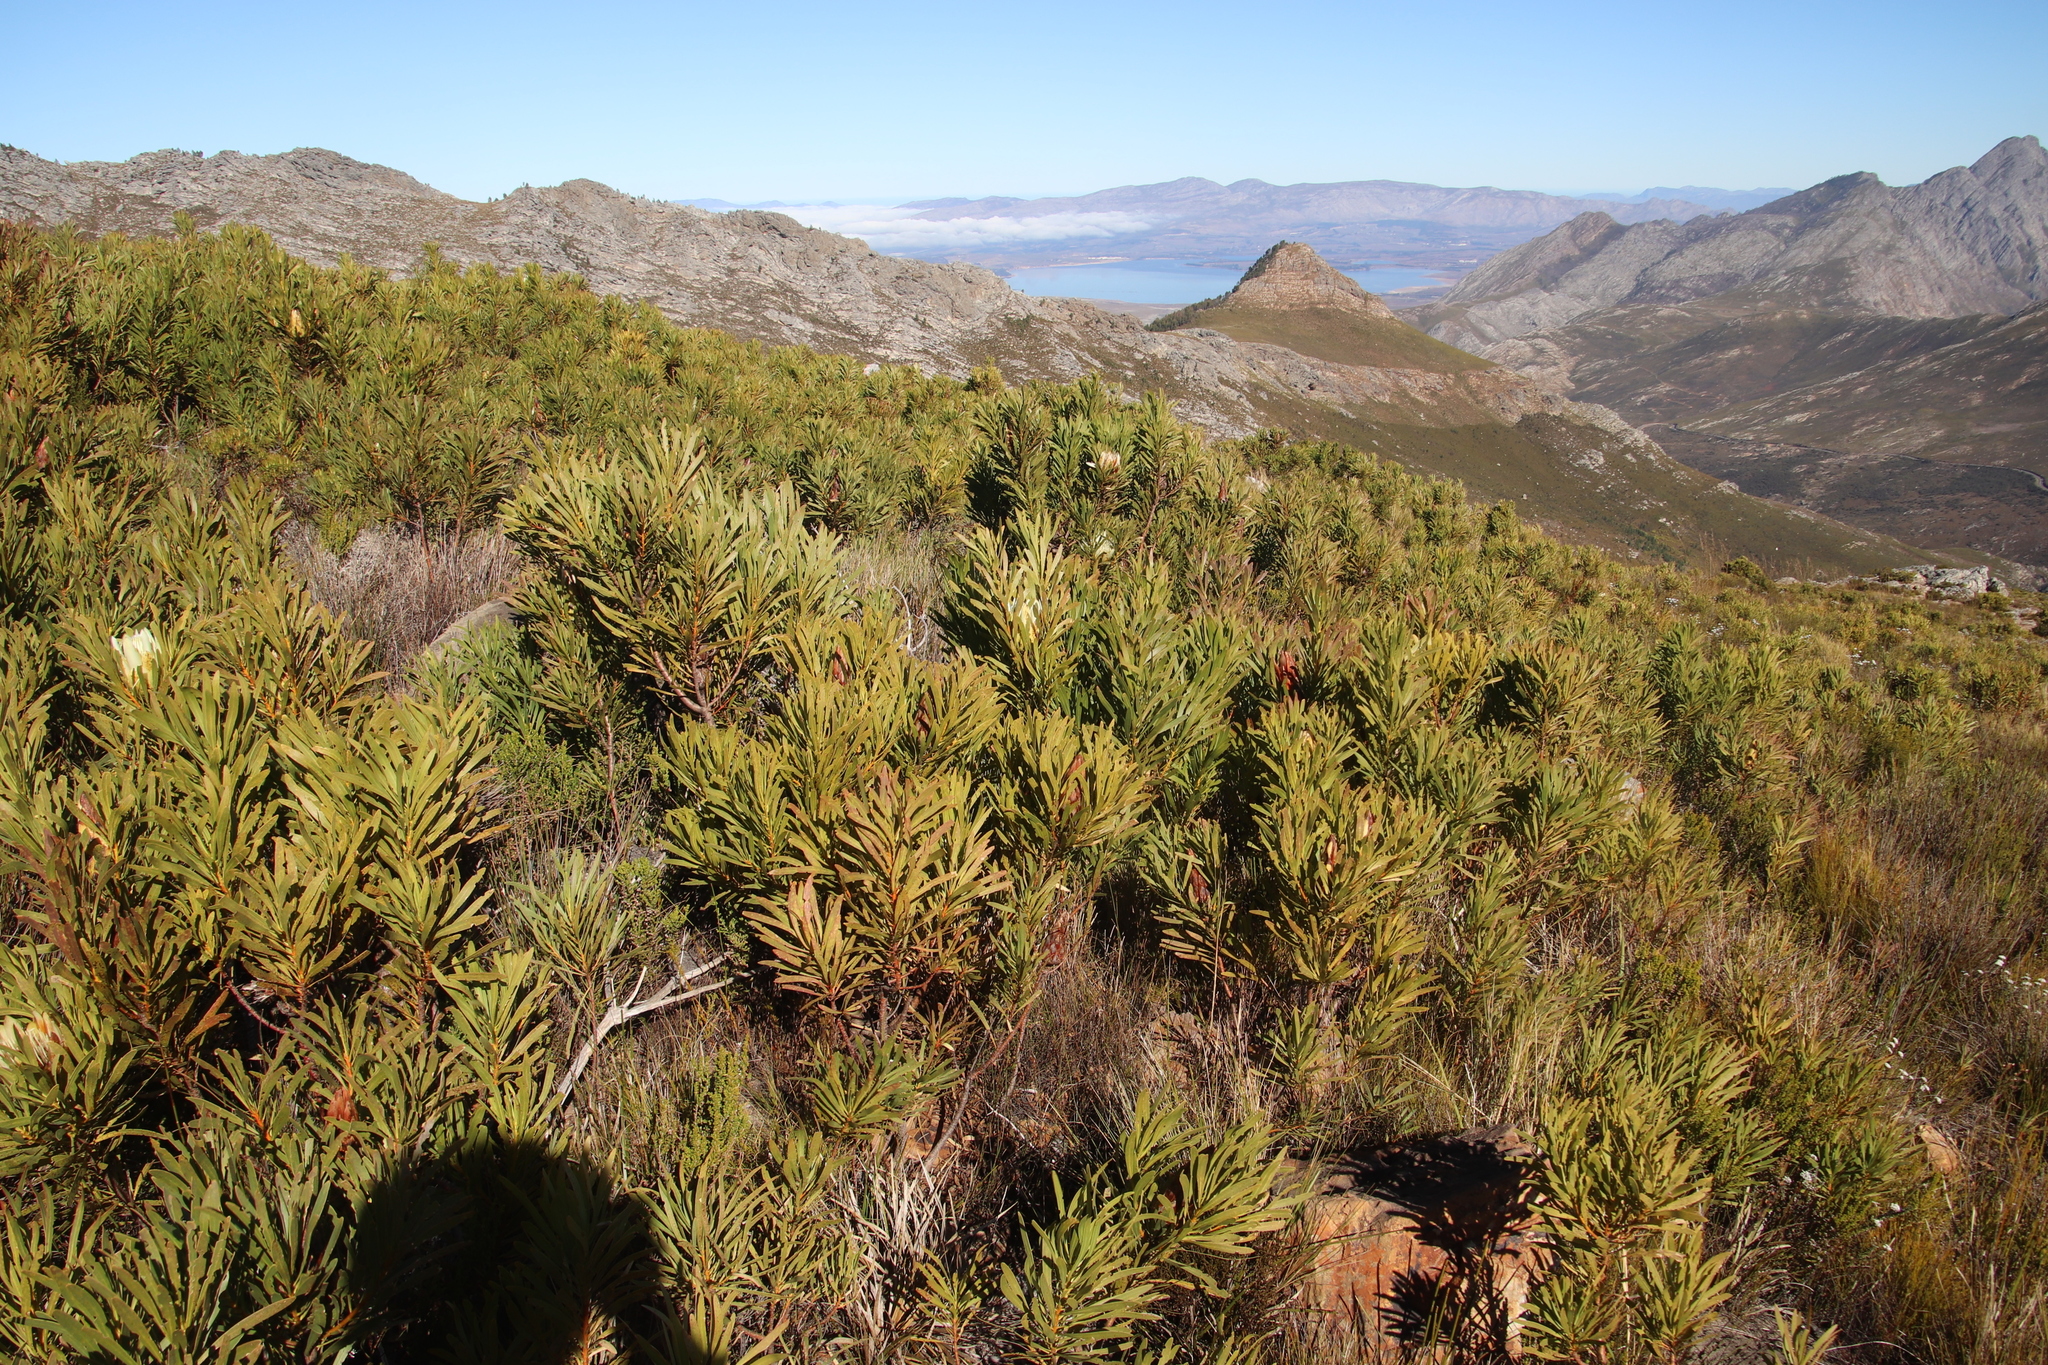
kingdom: Plantae
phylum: Tracheophyta
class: Magnoliopsida
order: Proteales
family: Proteaceae
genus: Protea
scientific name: Protea repens
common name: Sugarbush
